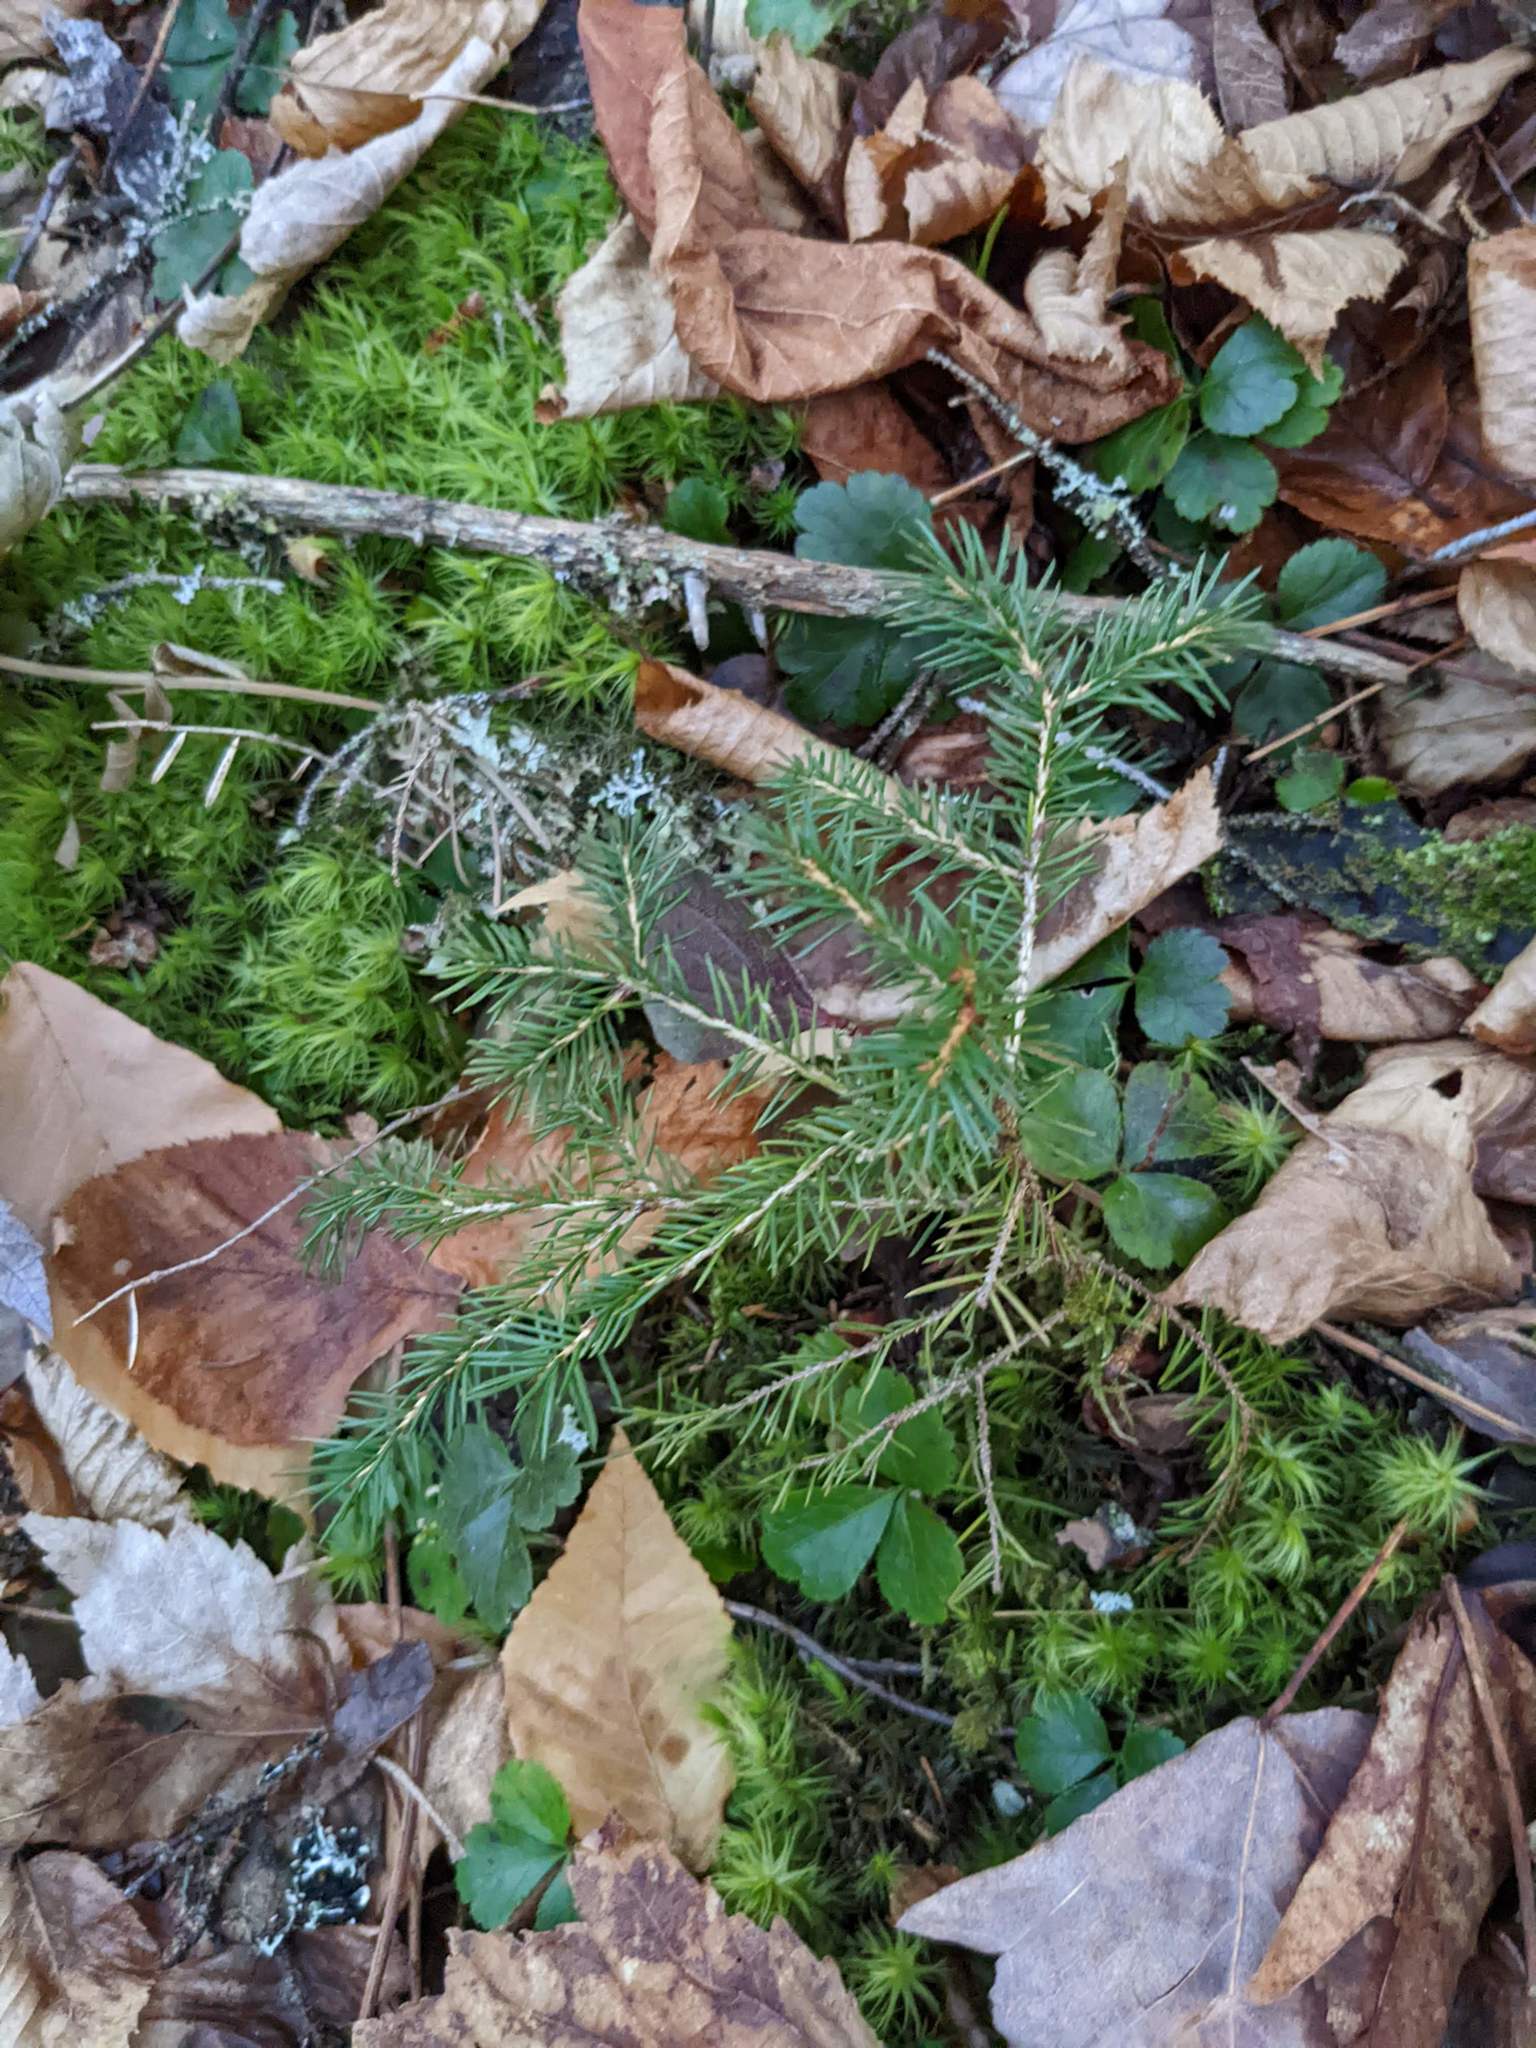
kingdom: Plantae
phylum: Tracheophyta
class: Pinopsida
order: Pinales
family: Pinaceae
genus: Picea
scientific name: Picea rubens
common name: Red spruce
